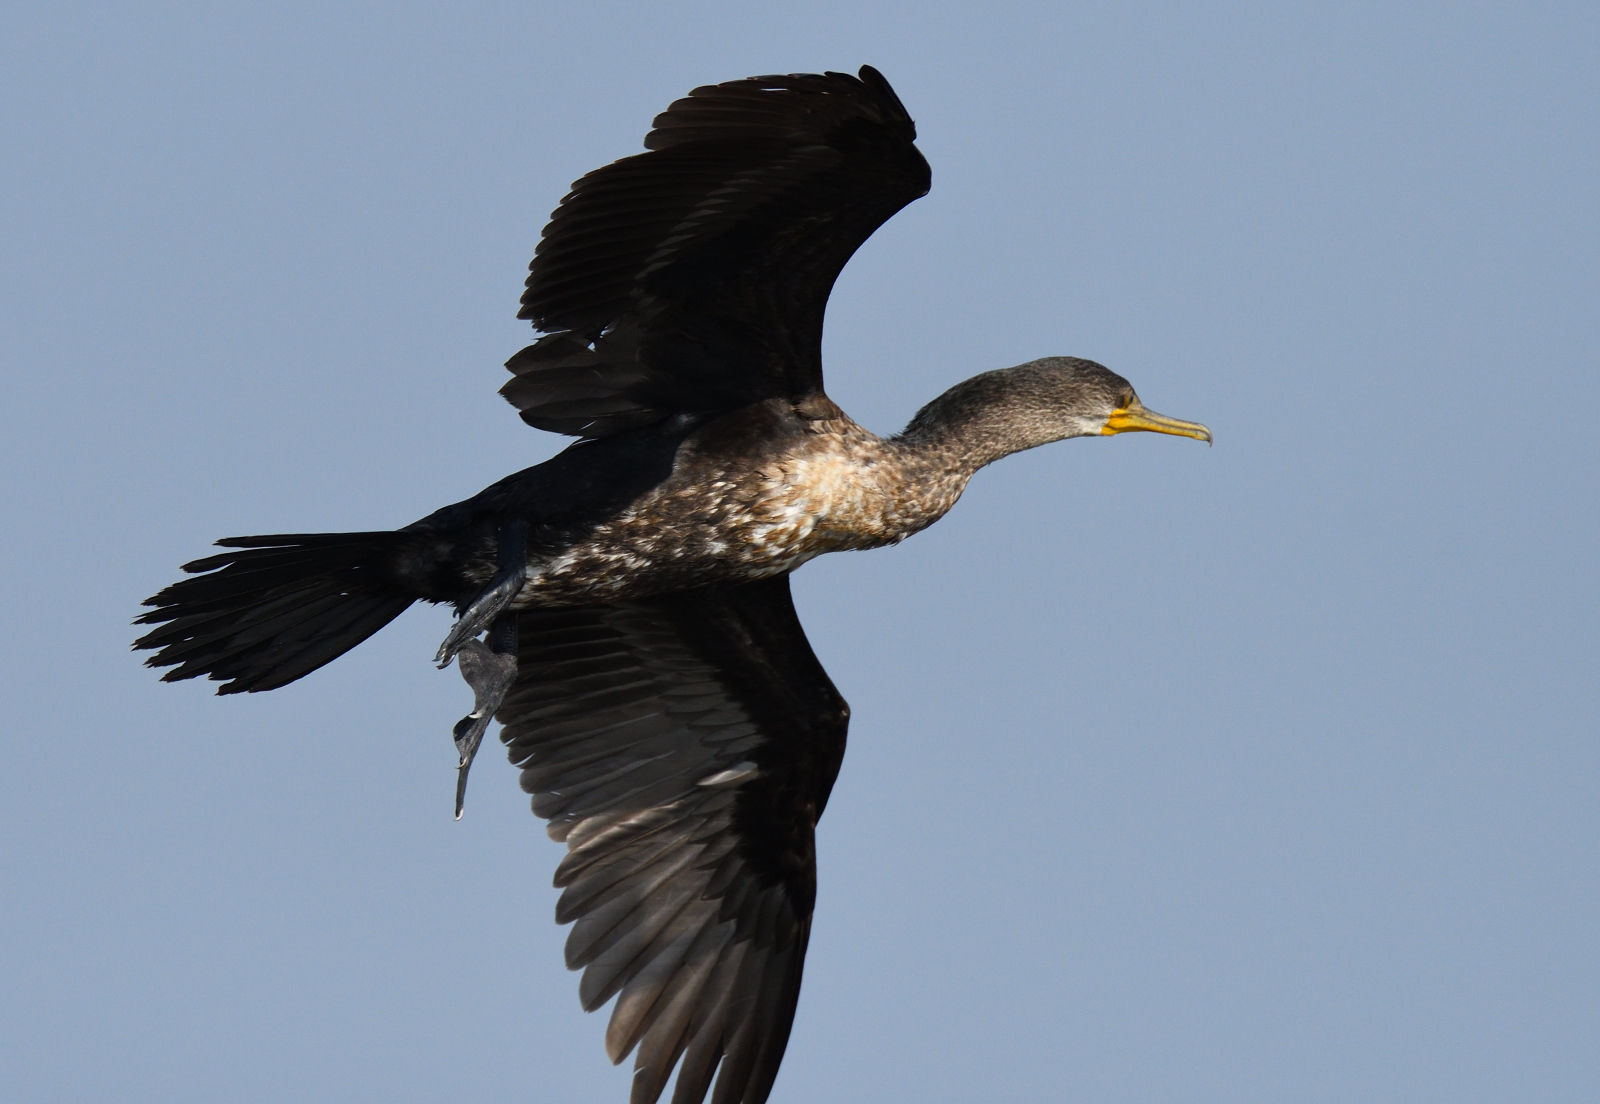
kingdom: Animalia
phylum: Chordata
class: Aves
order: Suliformes
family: Phalacrocoracidae
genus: Phalacrocorax
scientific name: Phalacrocorax fuscicollis
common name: Indian cormorant
